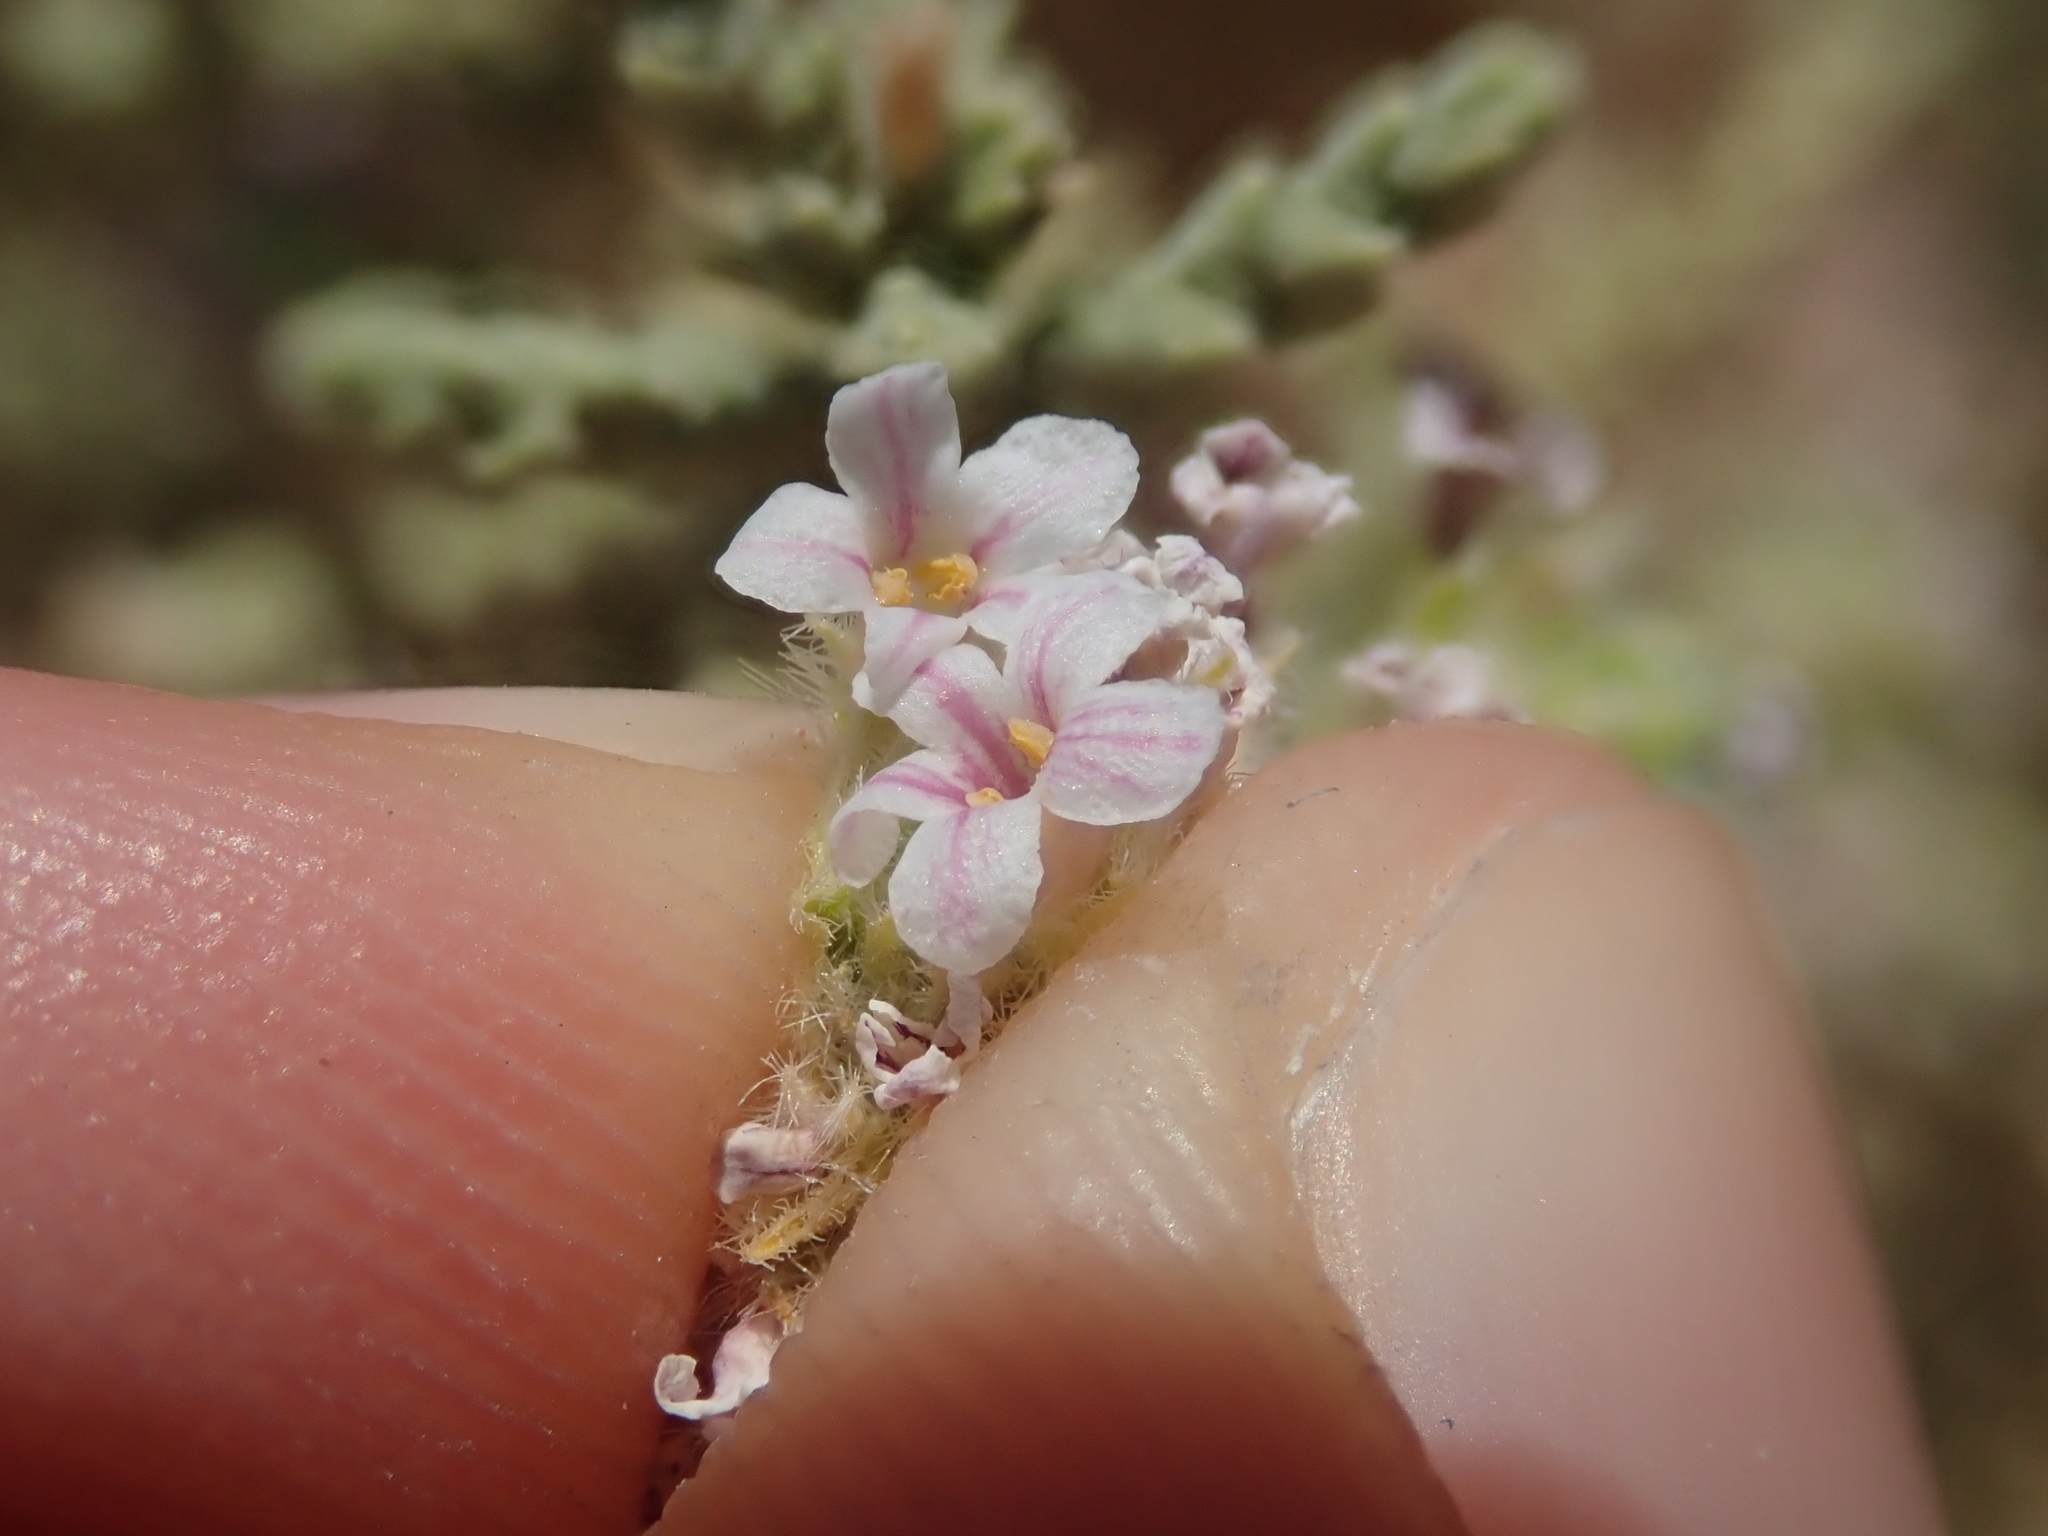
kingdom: Plantae
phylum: Tracheophyta
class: Magnoliopsida
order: Lamiales
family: Verbenaceae
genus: Aloysia
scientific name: Aloysia deserticola
